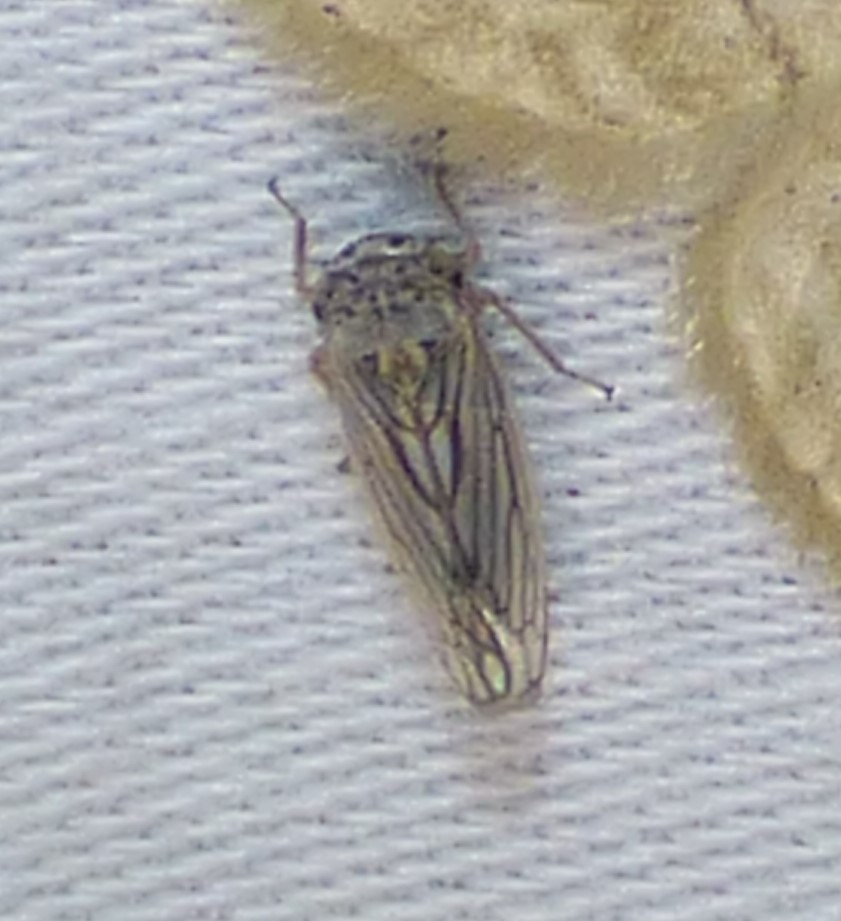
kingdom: Animalia
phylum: Arthropoda
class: Insecta
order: Hemiptera
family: Cicadellidae
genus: Exitianus
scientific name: Exitianus exitiosus
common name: Gray lawn leafhopper
